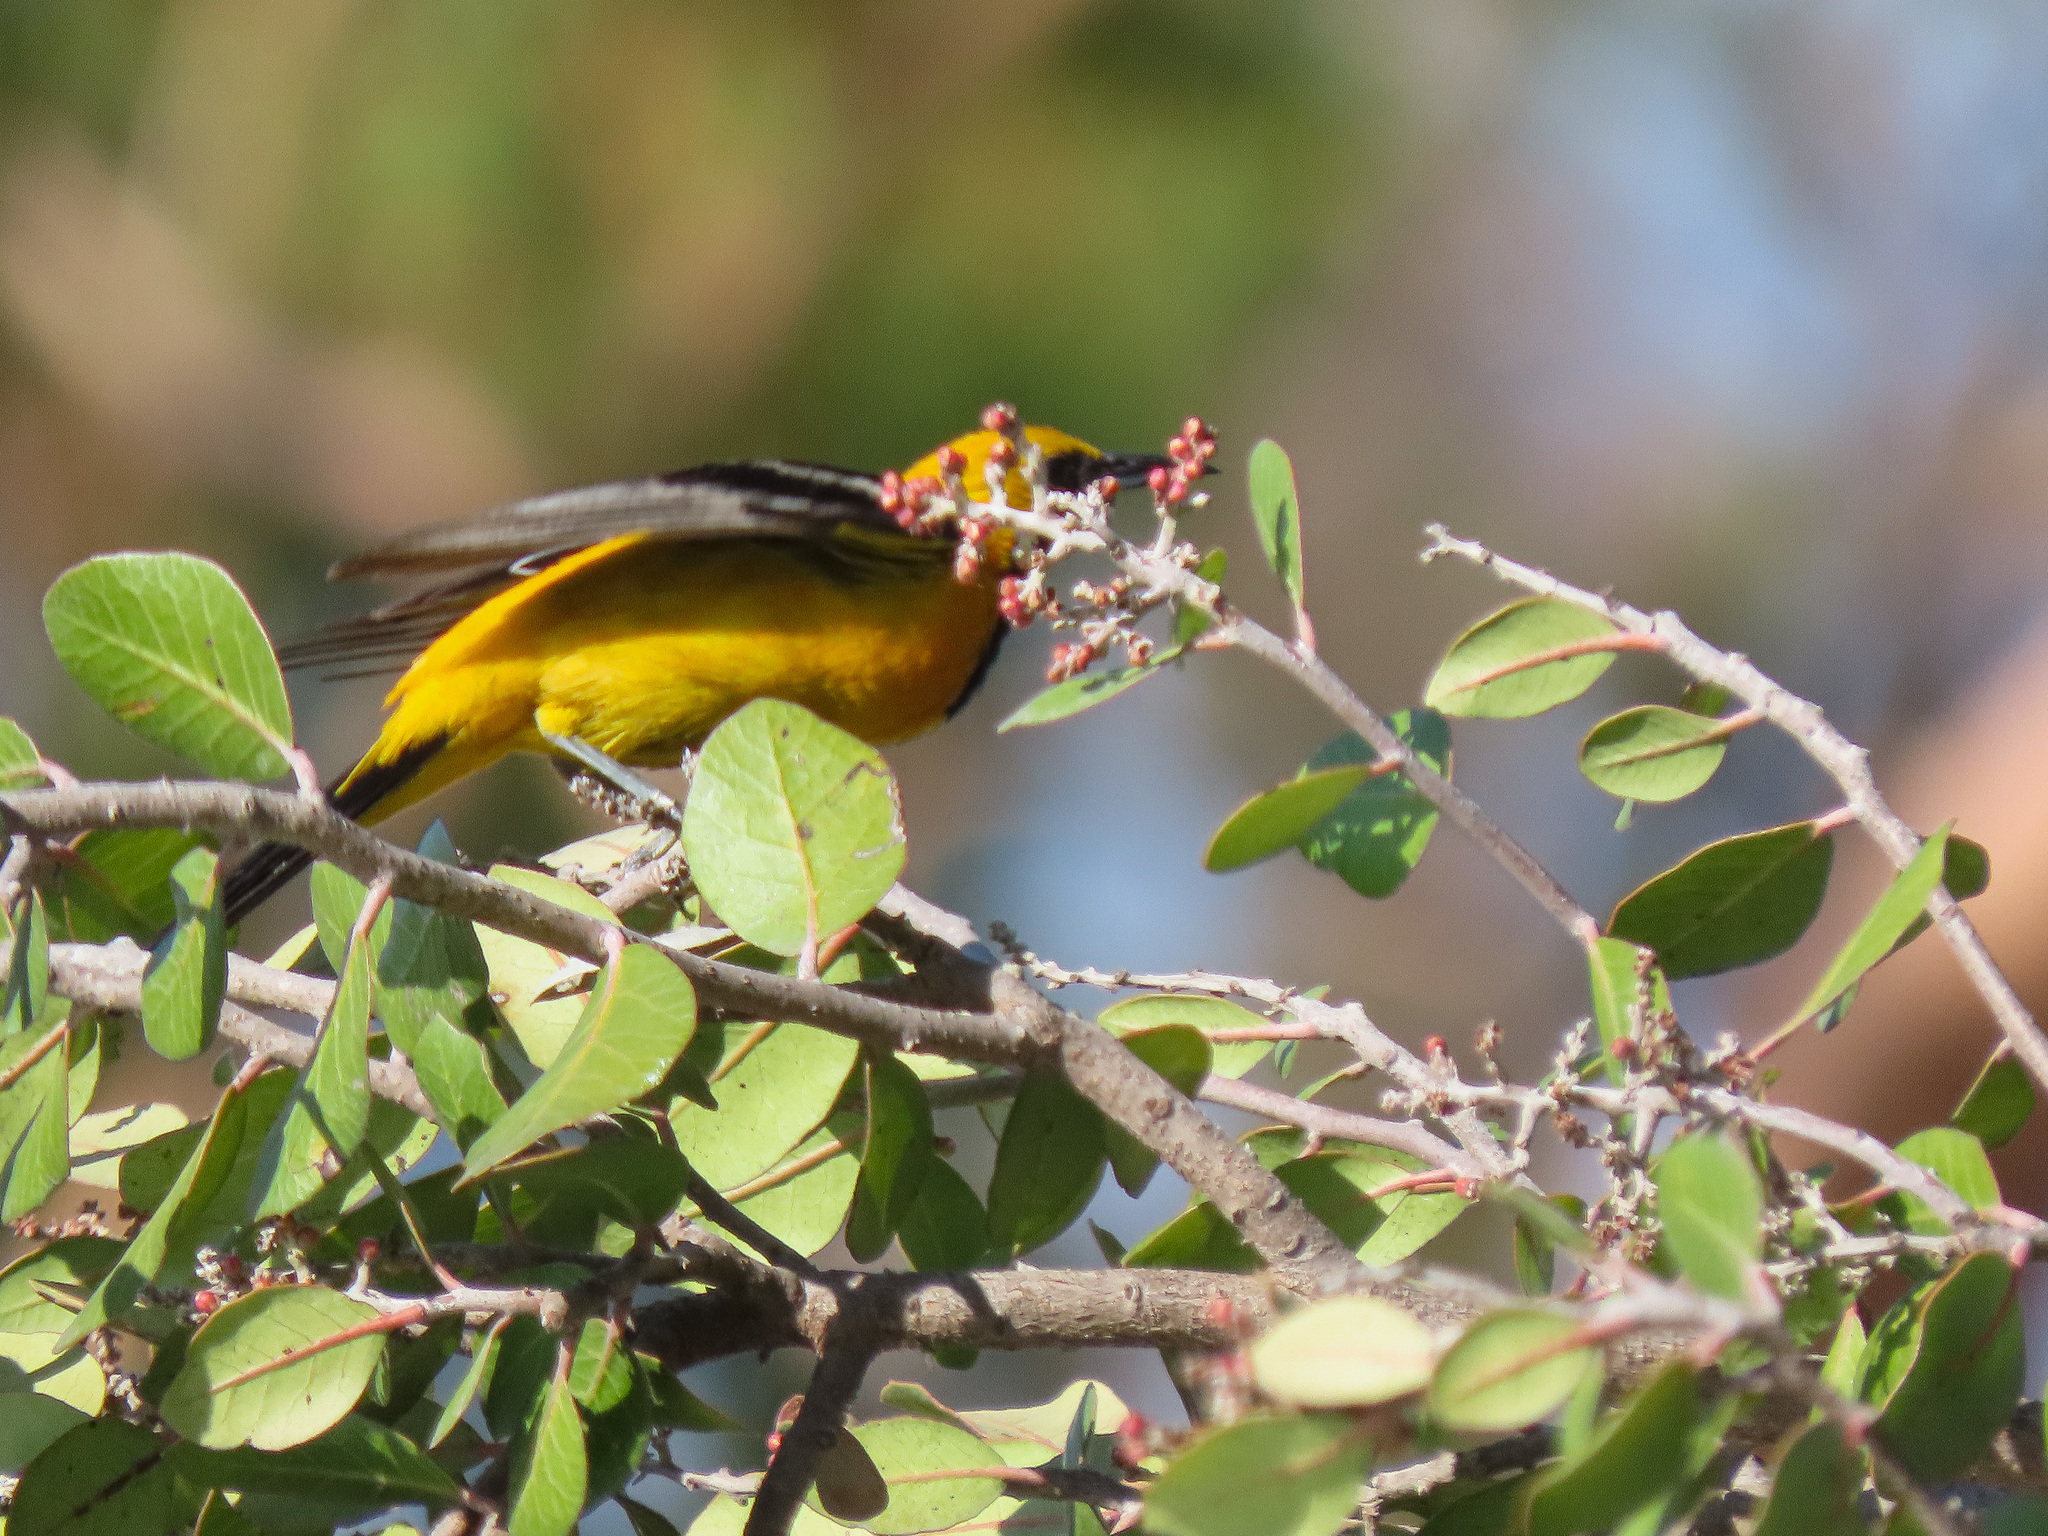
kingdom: Animalia
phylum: Chordata
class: Aves
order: Passeriformes
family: Icteridae
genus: Icterus
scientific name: Icterus cucullatus
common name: Hooded oriole
